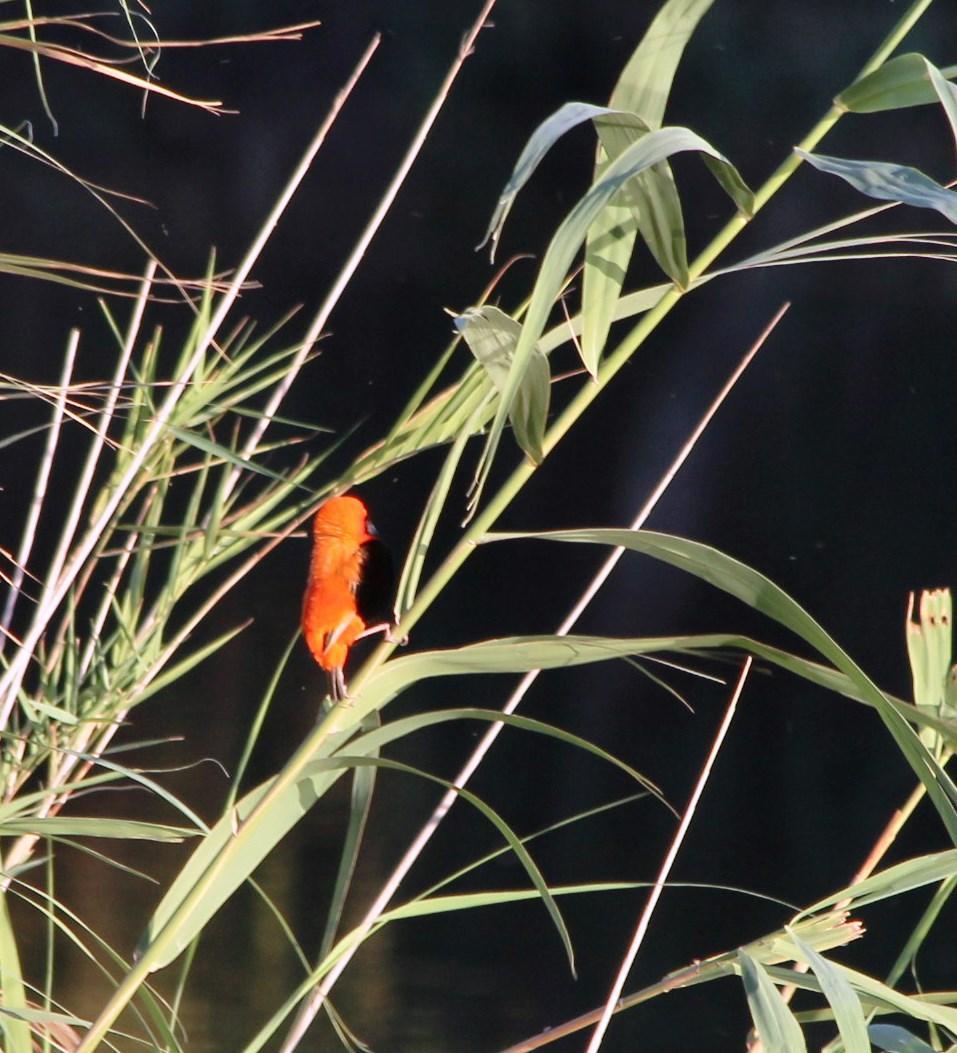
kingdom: Animalia
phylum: Chordata
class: Aves
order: Passeriformes
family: Ploceidae
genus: Euplectes
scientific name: Euplectes orix
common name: Southern red bishop
